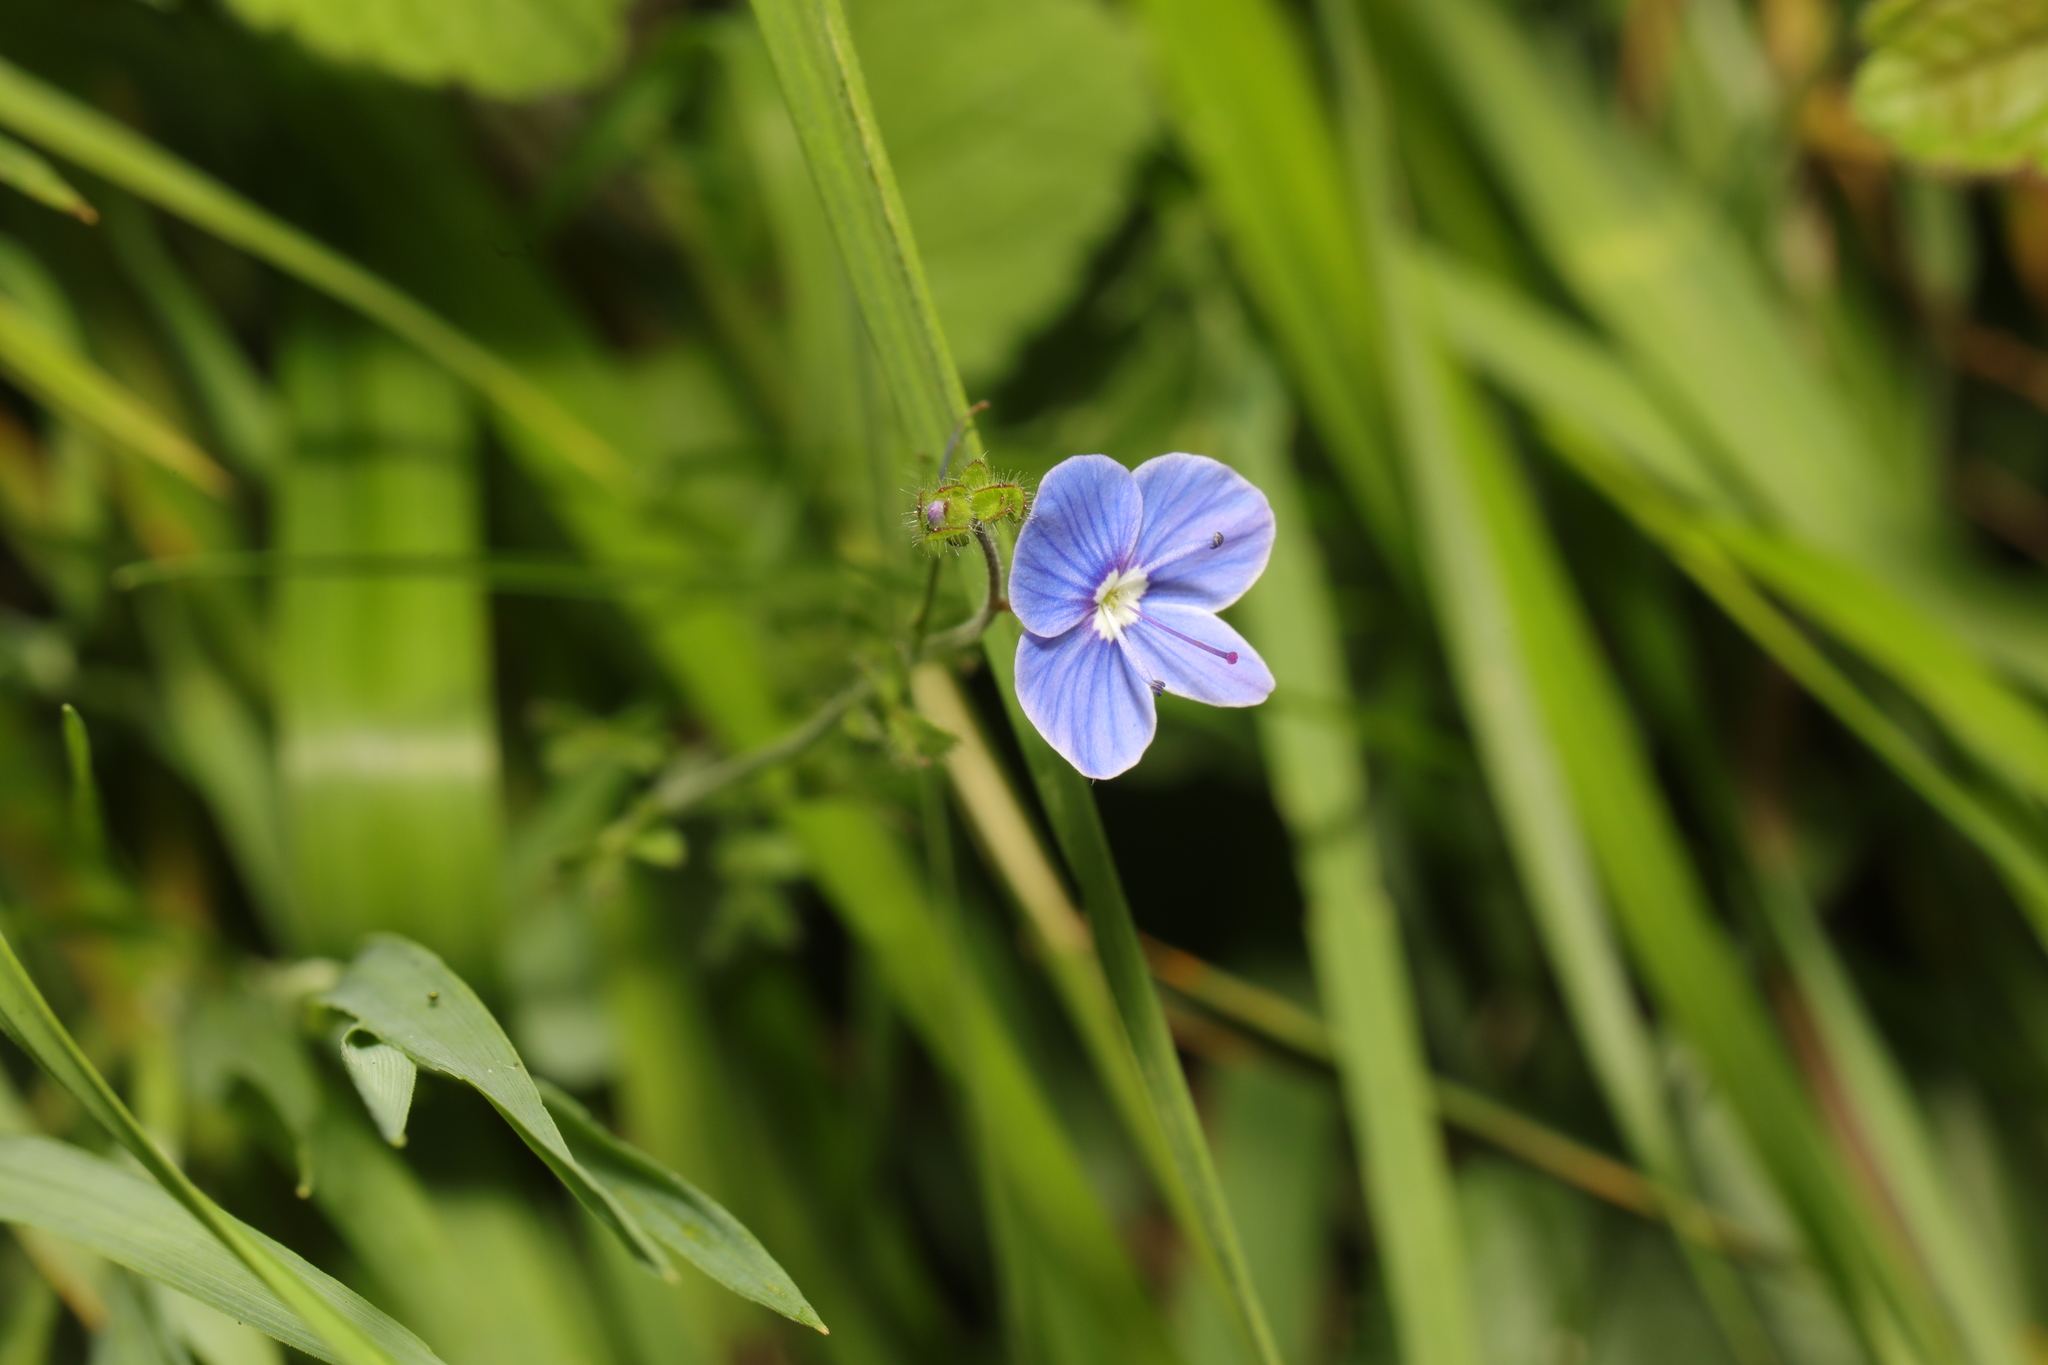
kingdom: Plantae
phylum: Tracheophyta
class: Magnoliopsida
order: Lamiales
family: Plantaginaceae
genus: Veronica
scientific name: Veronica chamaedrys
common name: Germander speedwell
